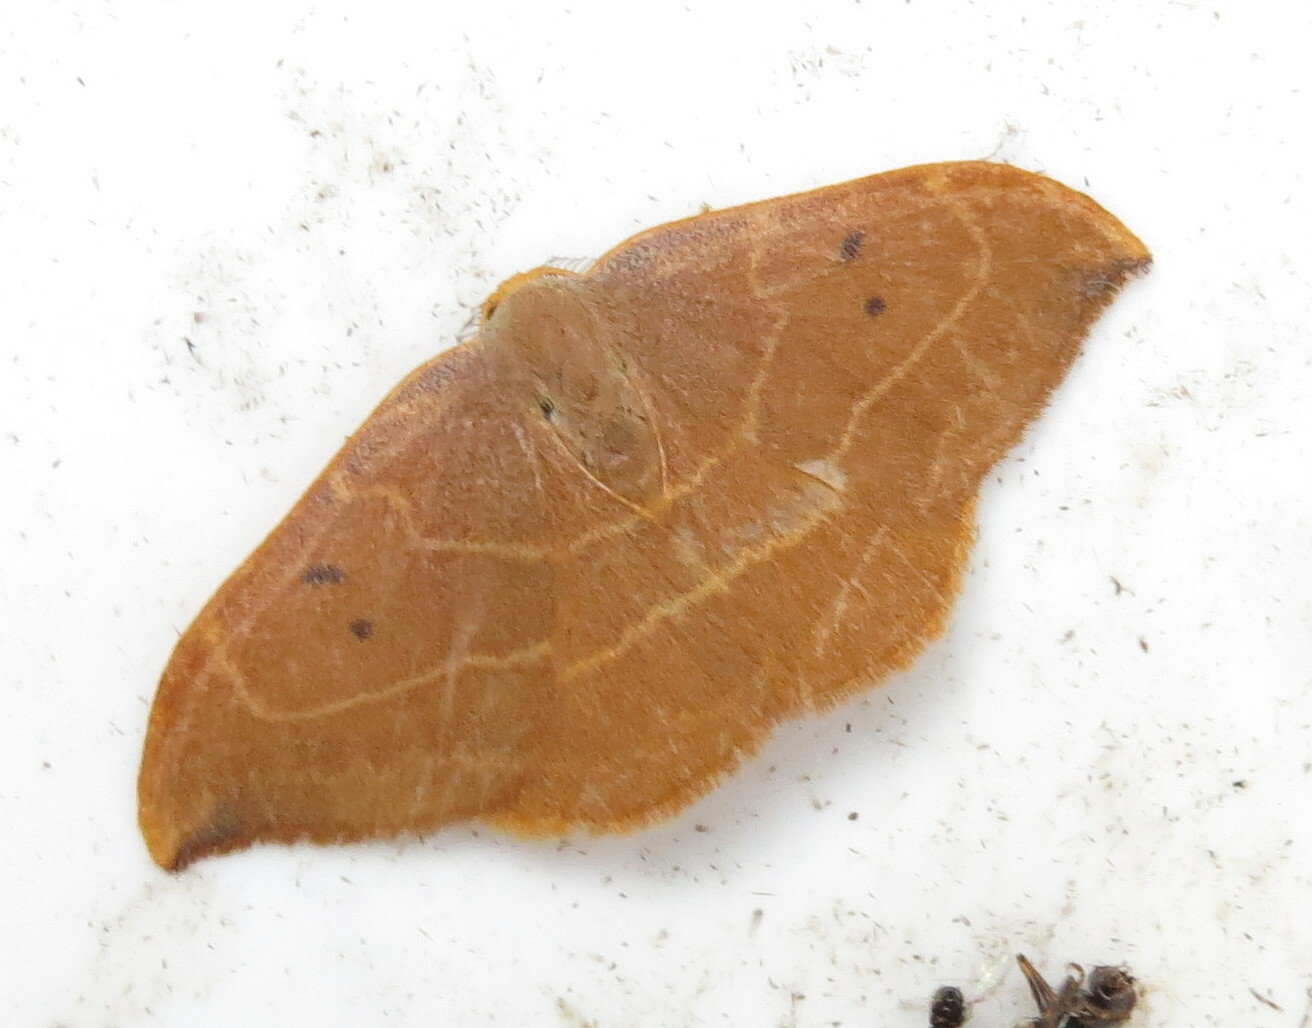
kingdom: Animalia
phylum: Arthropoda
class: Insecta
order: Lepidoptera
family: Drepanidae
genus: Watsonalla
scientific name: Watsonalla binaria
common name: Oak hook-tip
